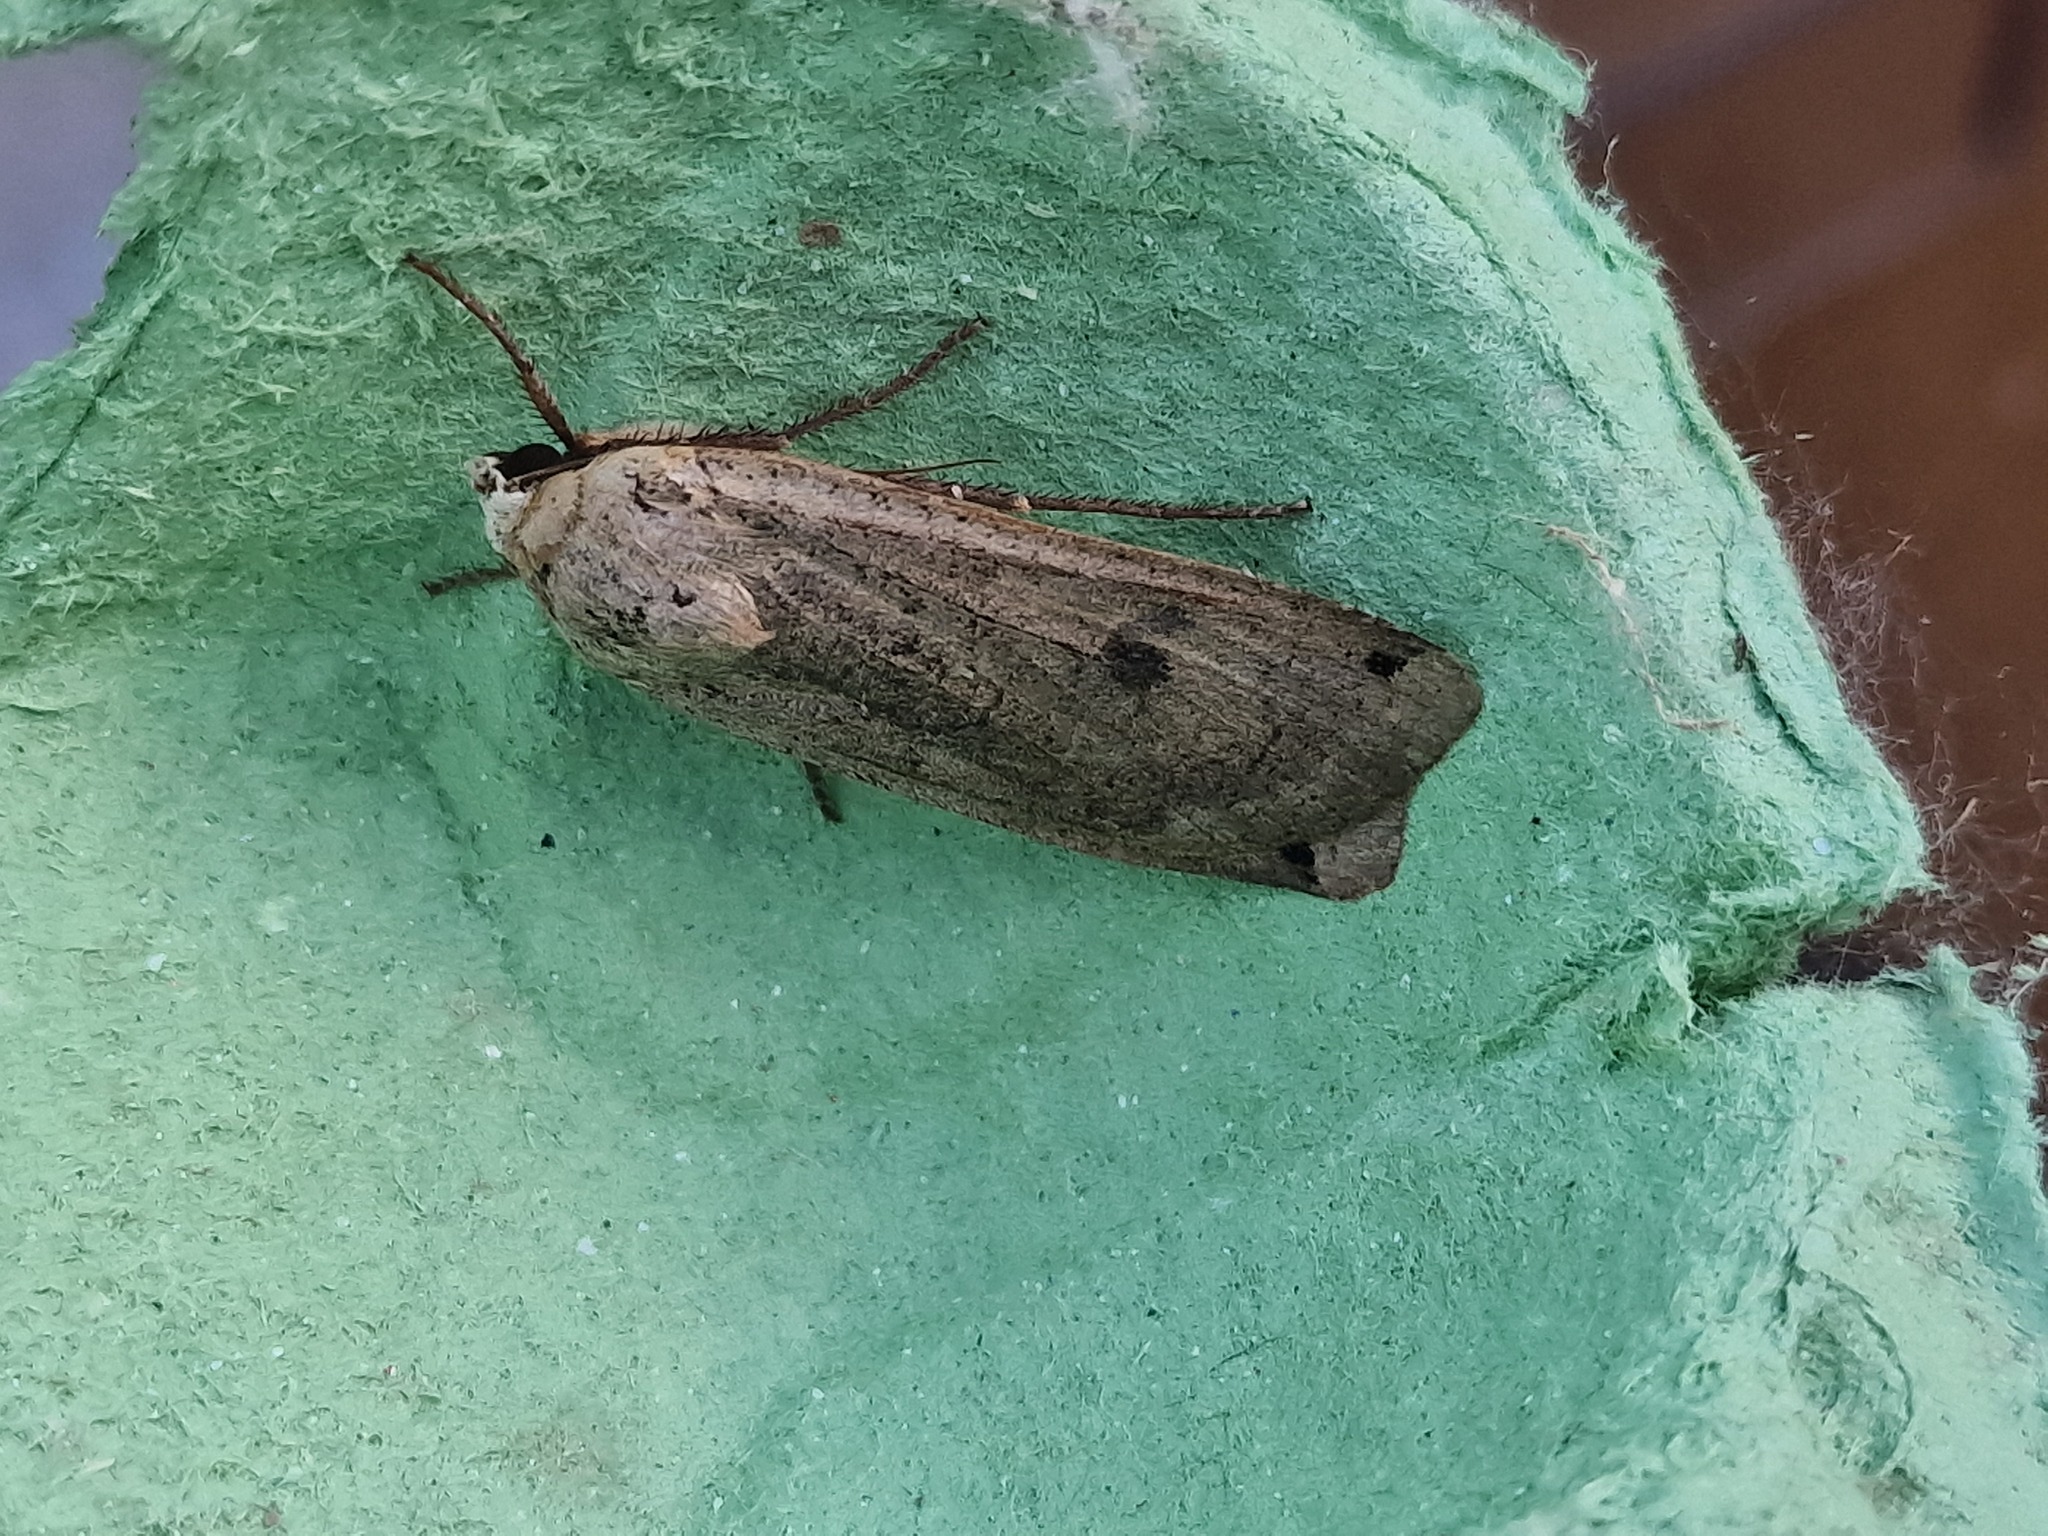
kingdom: Animalia
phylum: Arthropoda
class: Insecta
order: Lepidoptera
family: Noctuidae
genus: Noctua
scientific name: Noctua pronuba
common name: Large yellow underwing
